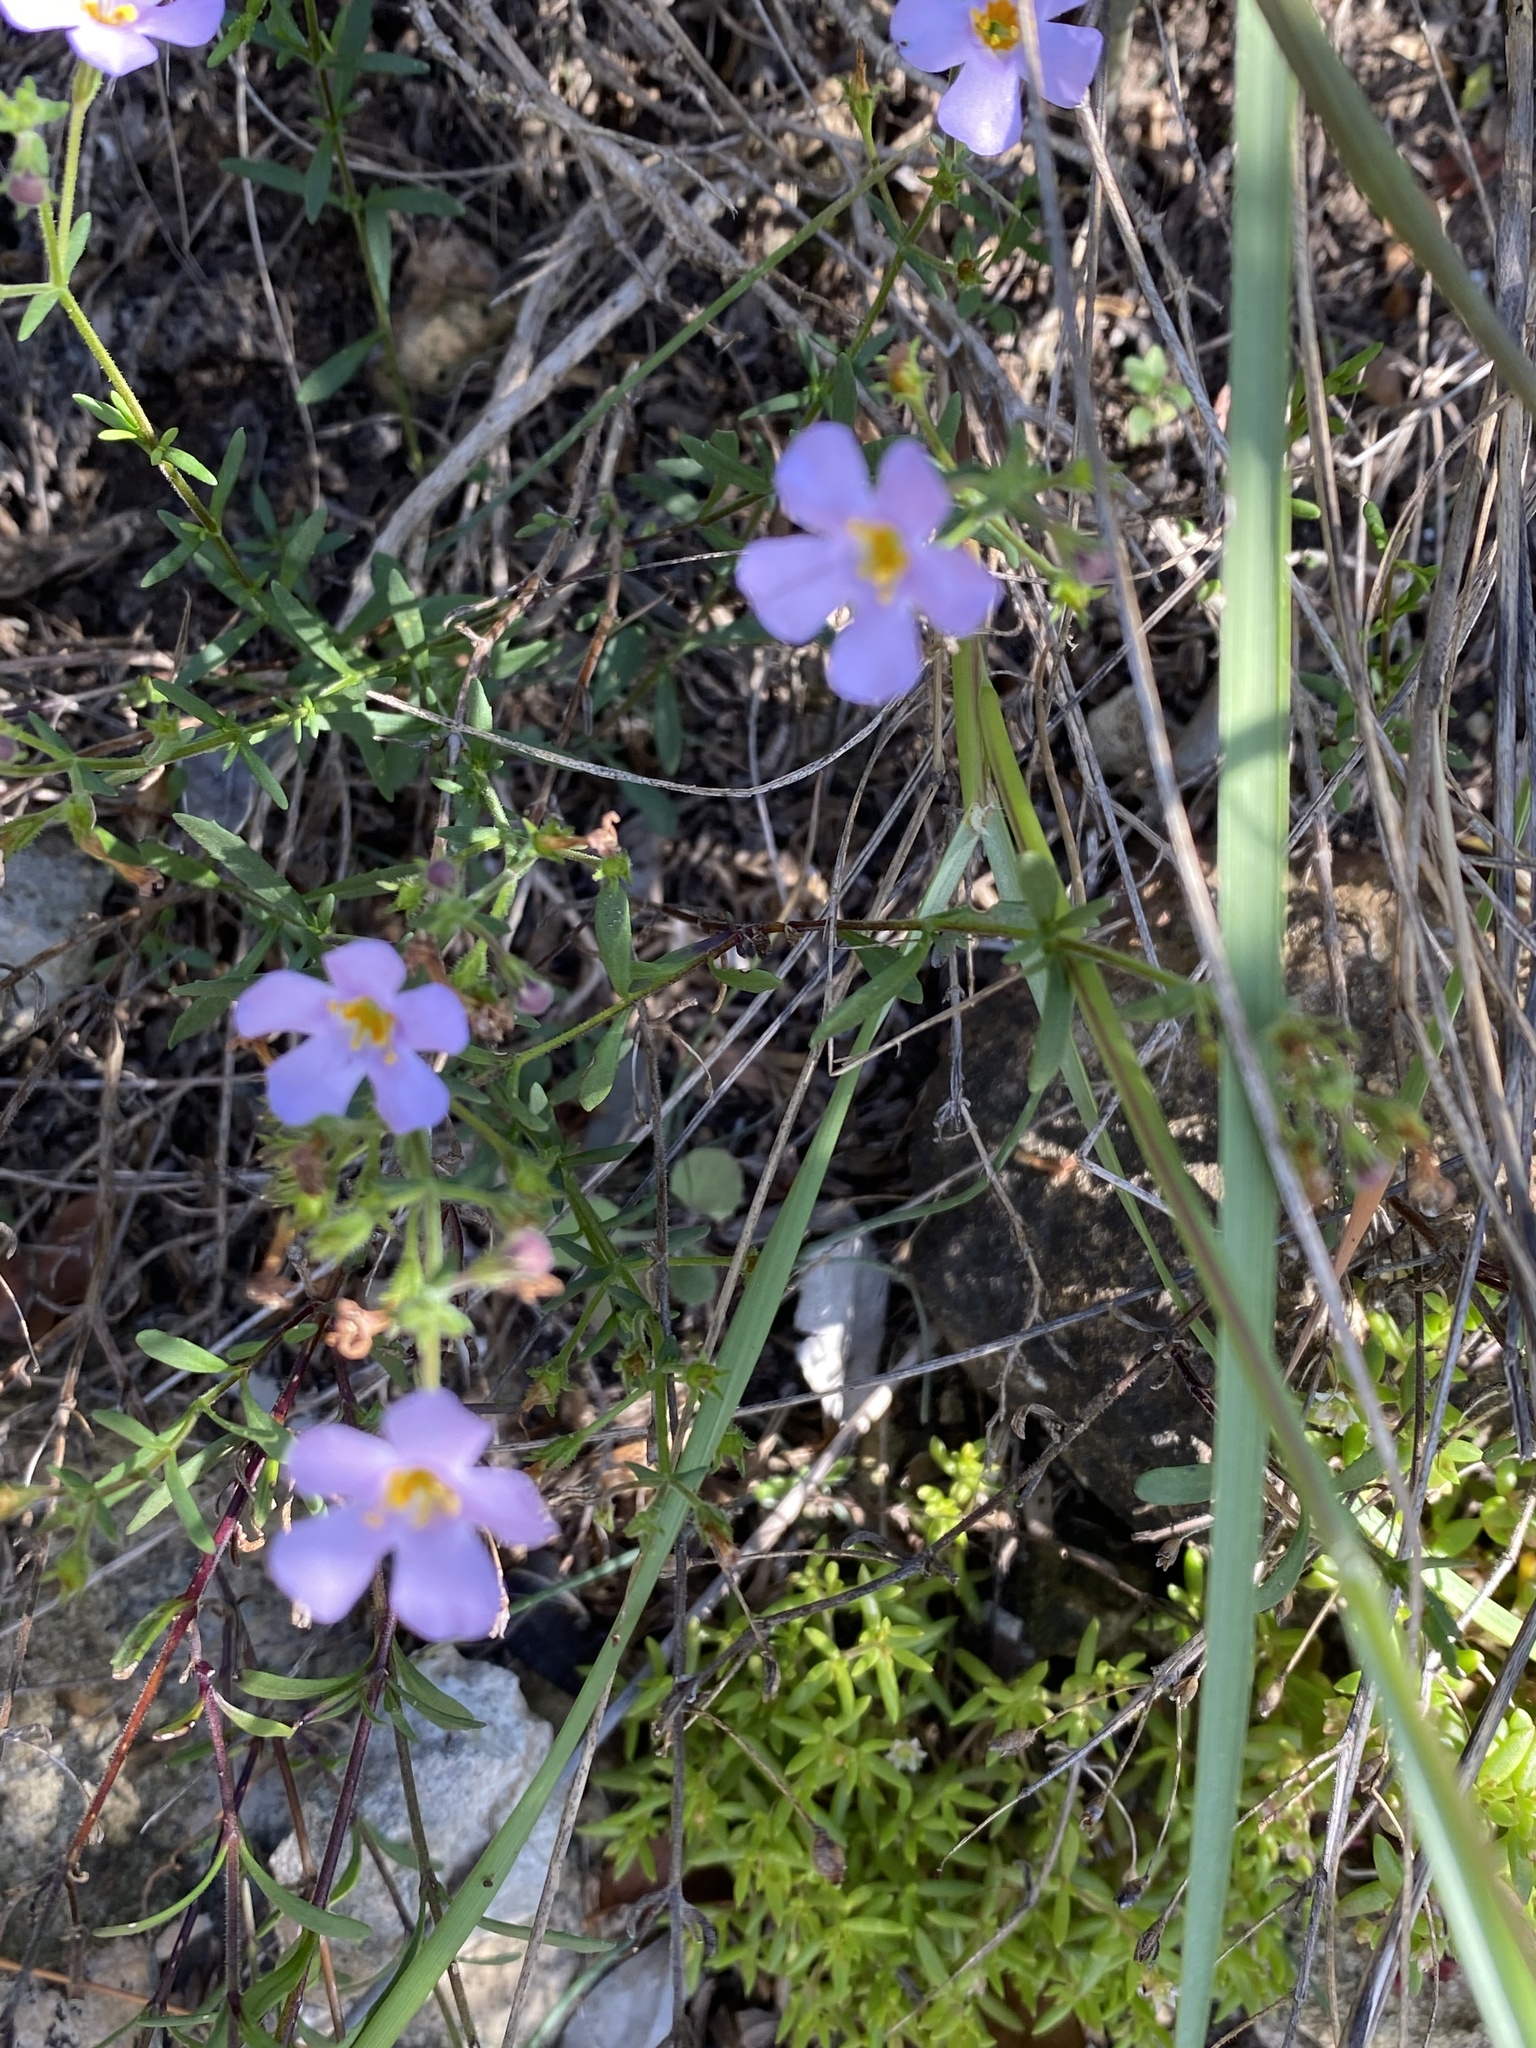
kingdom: Plantae
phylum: Tracheophyta
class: Magnoliopsida
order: Lamiales
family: Scrophulariaceae
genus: Chaenostoma
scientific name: Chaenostoma revolutum
